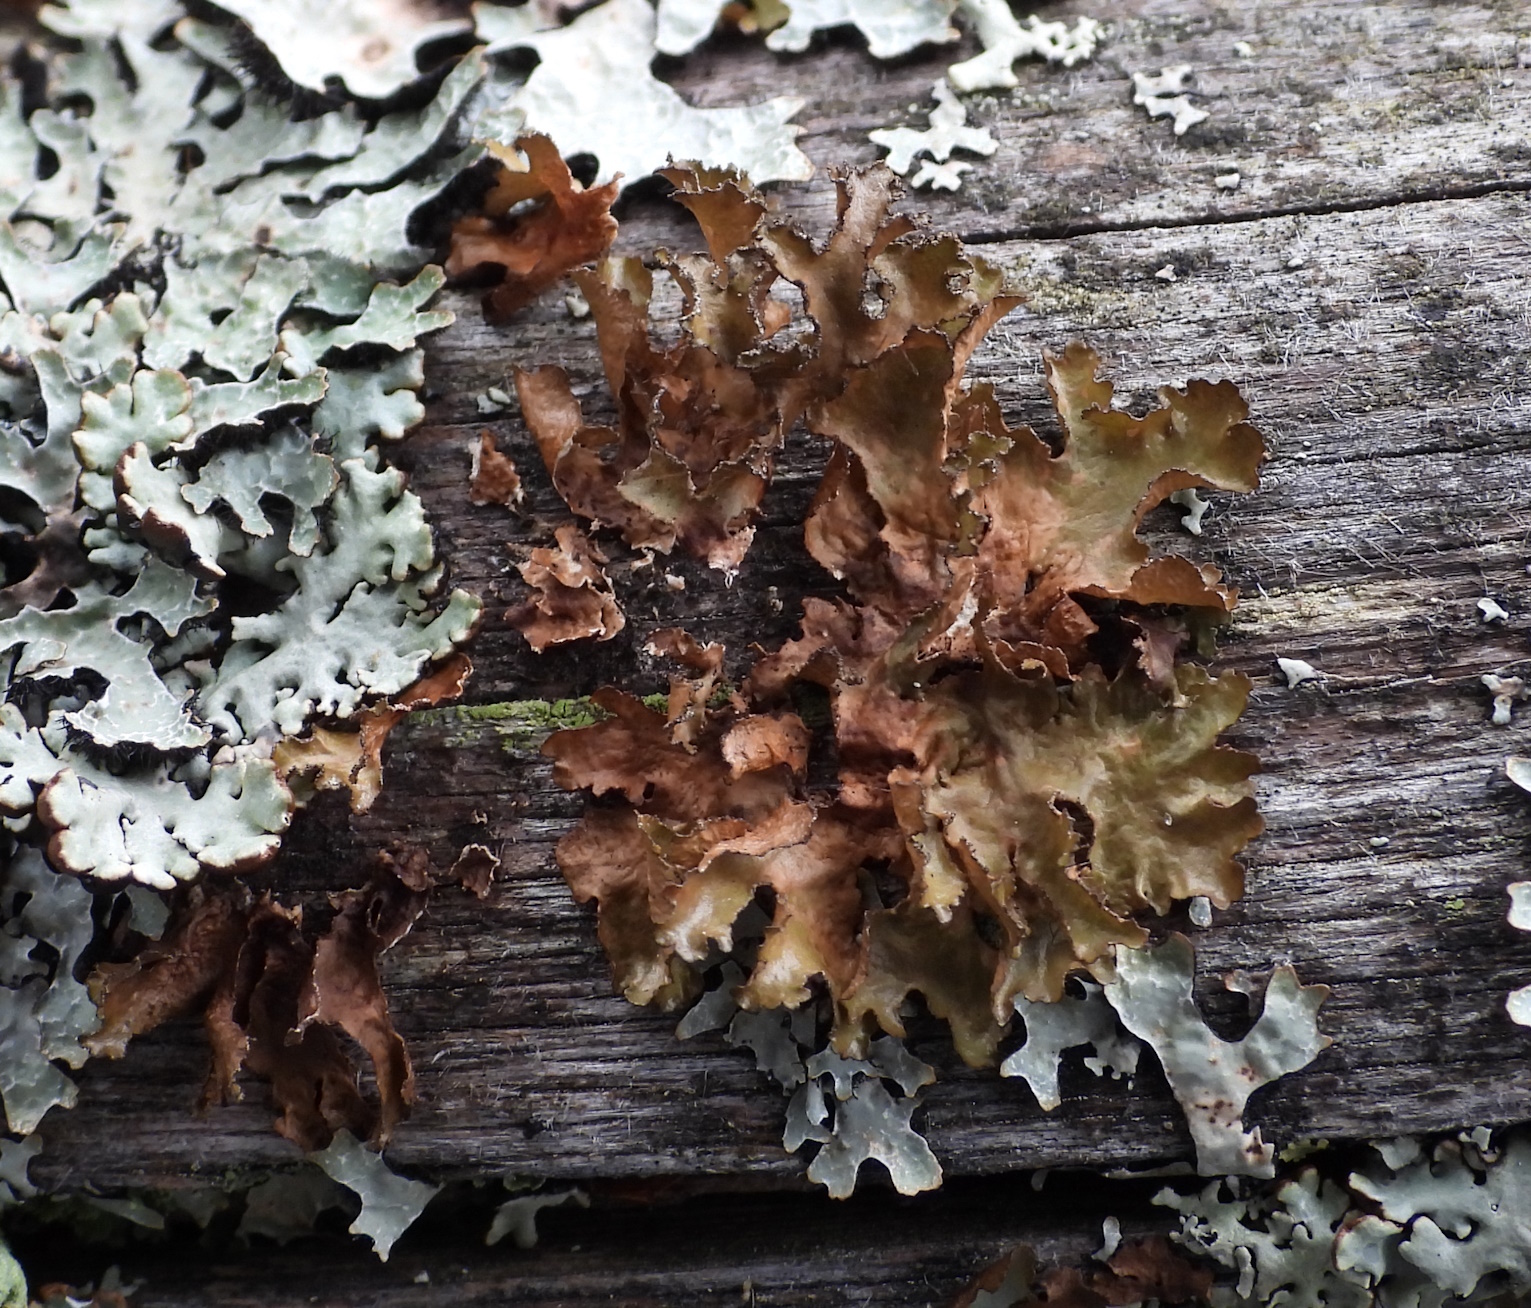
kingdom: Fungi
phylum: Ascomycota
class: Lecanoromycetes
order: Lecanorales
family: Parmeliaceae
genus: Nephromopsis
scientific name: Nephromopsis chlorophylla
